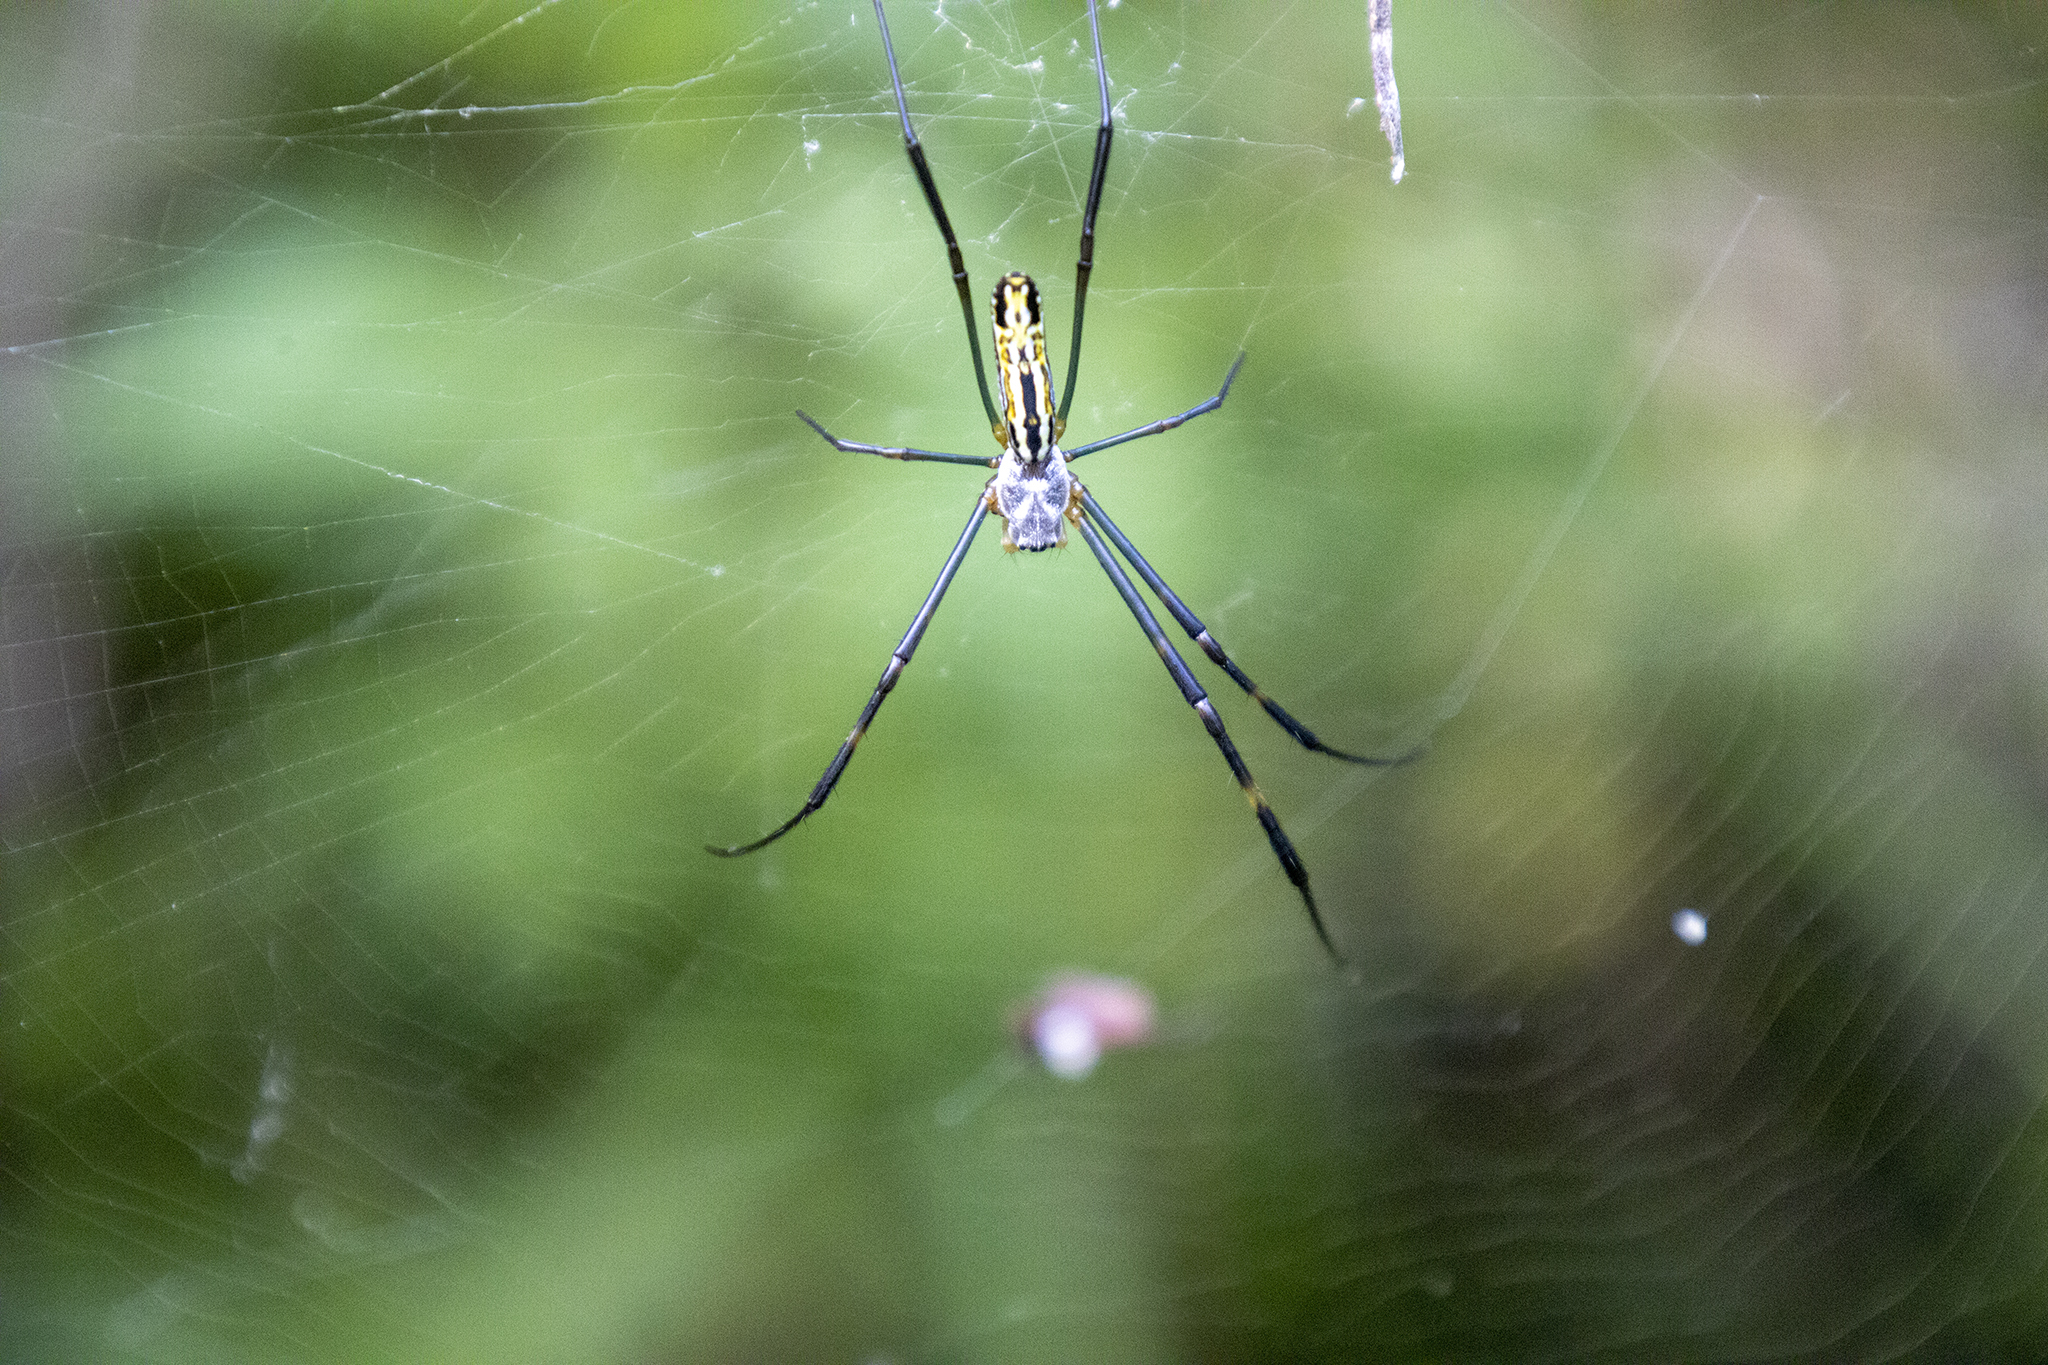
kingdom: Animalia
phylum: Arthropoda
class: Arachnida
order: Araneae
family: Araneidae
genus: Trichonephila
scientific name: Trichonephila clavata
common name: Jorō spider
